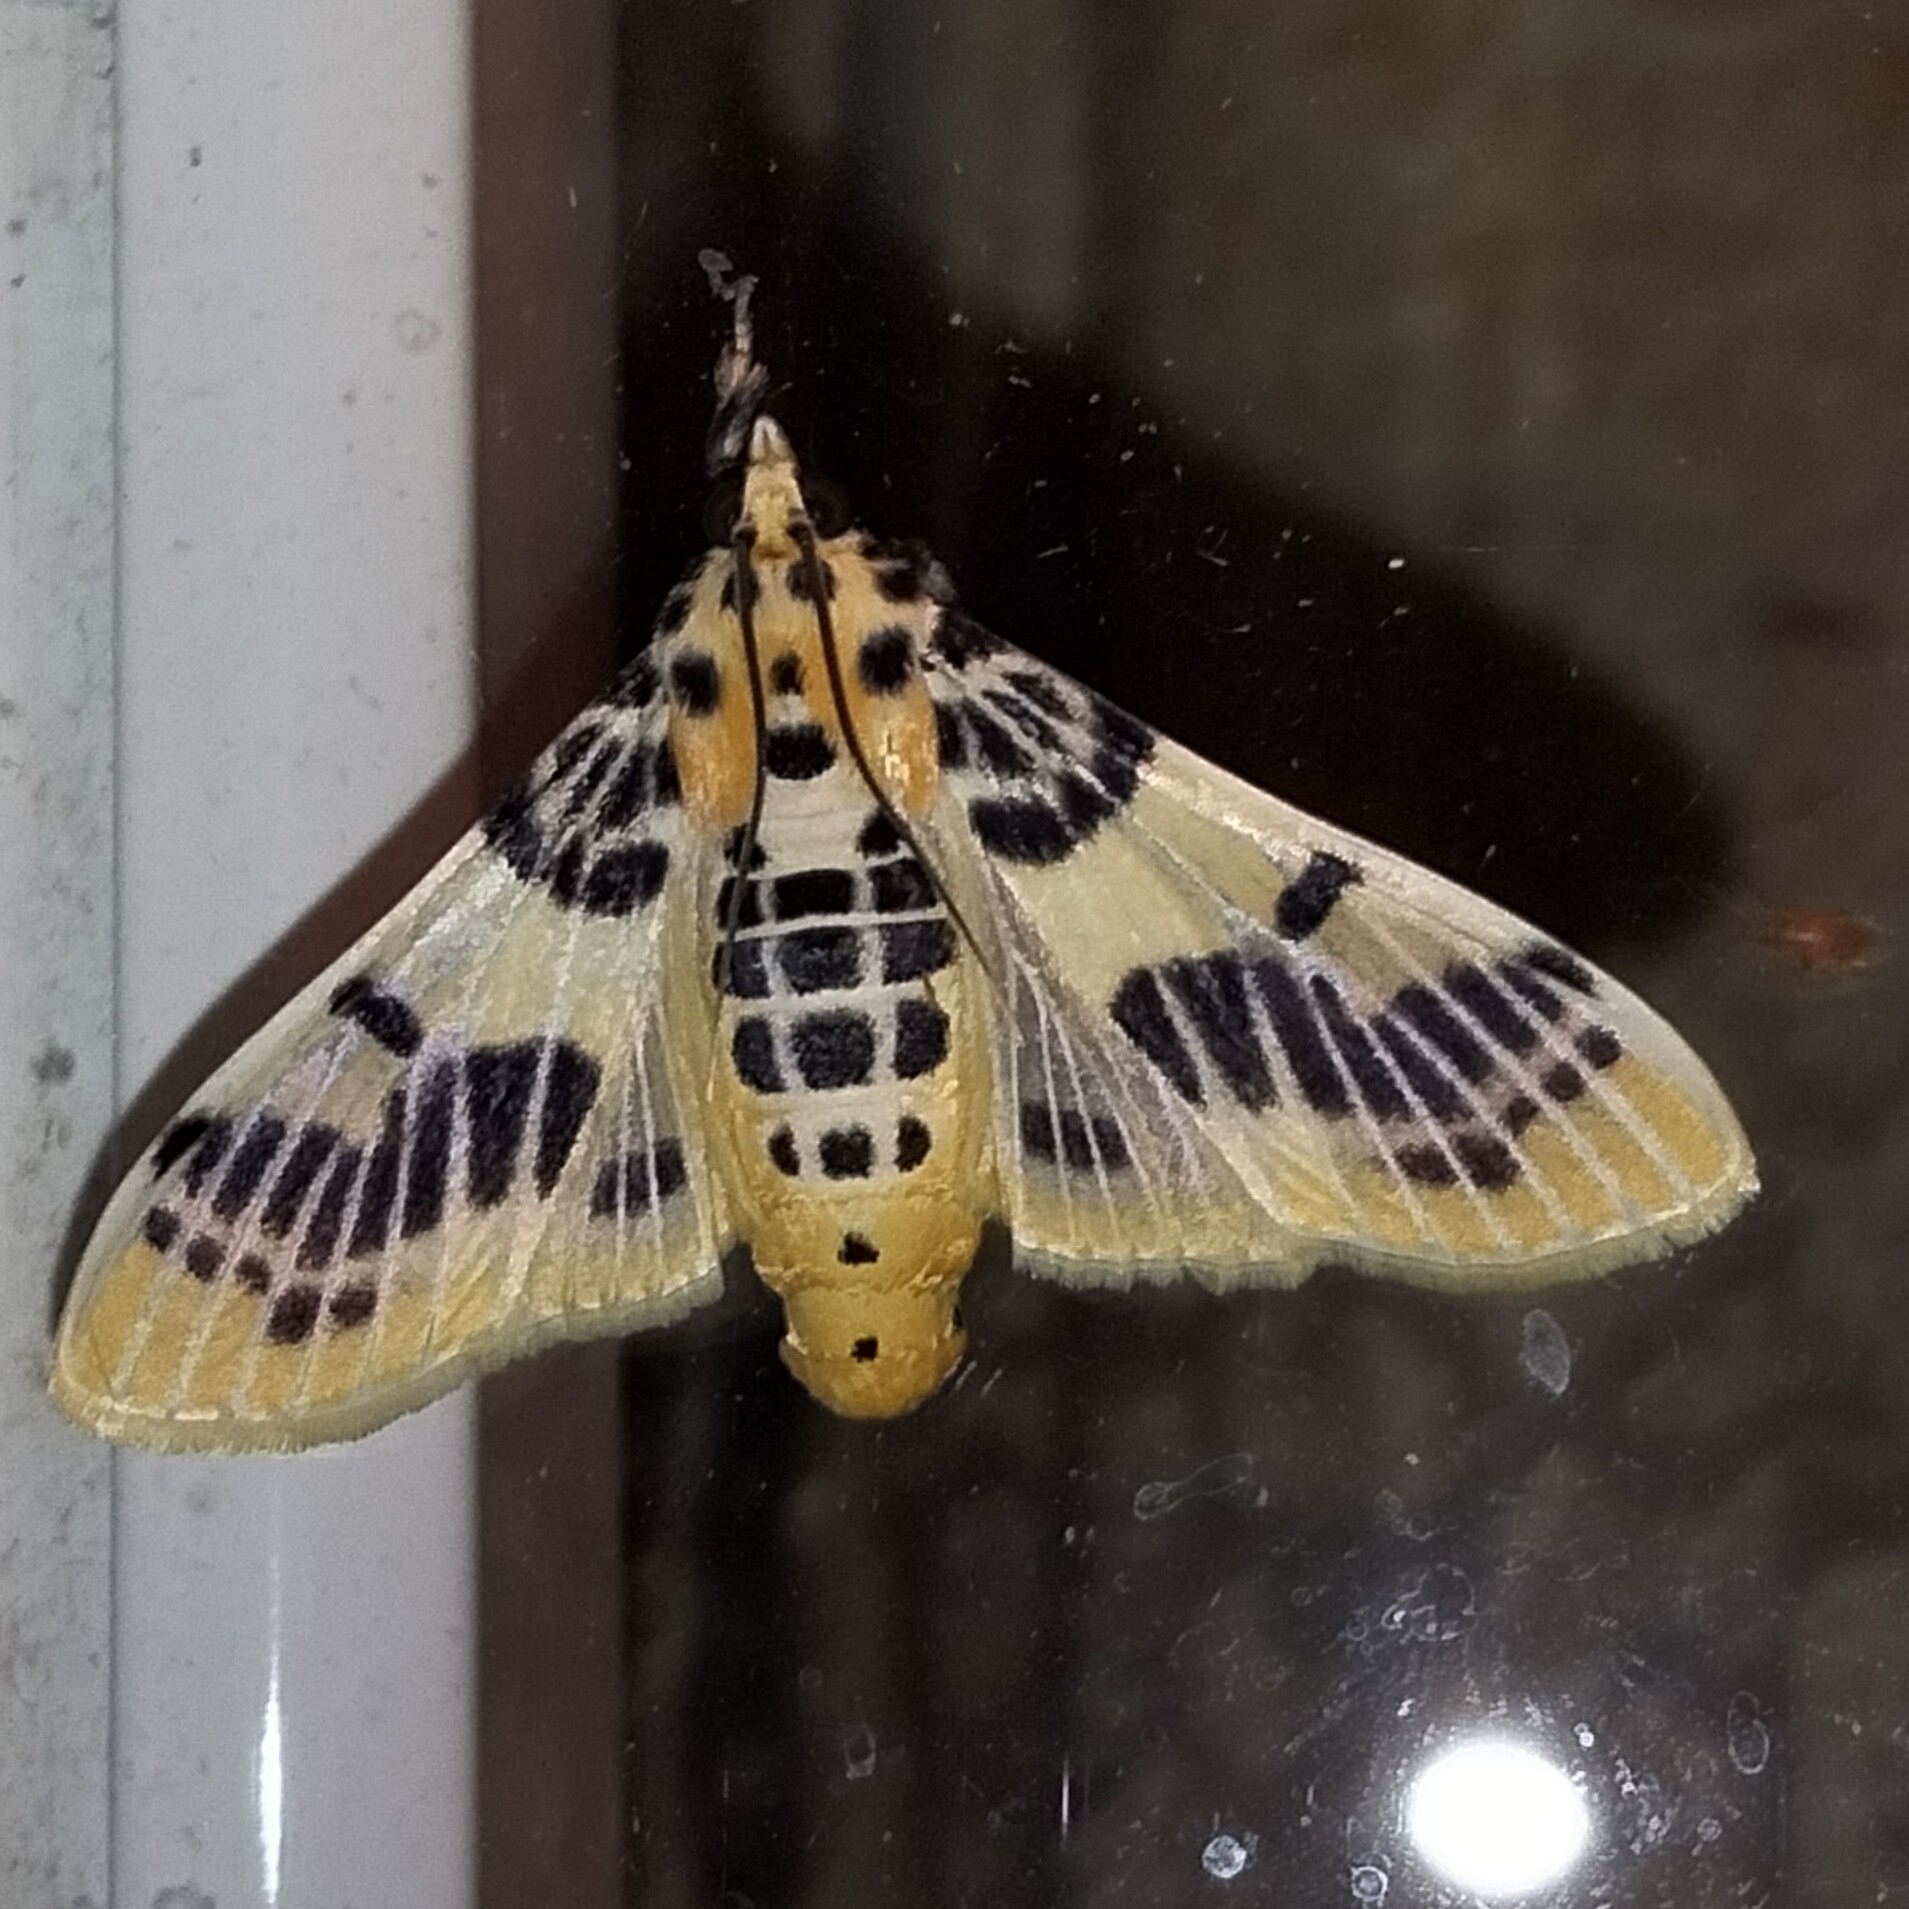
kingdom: Animalia
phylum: Arthropoda
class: Insecta
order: Lepidoptera
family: Crambidae
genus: Pachynoa
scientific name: Pachynoa xanthochyta
